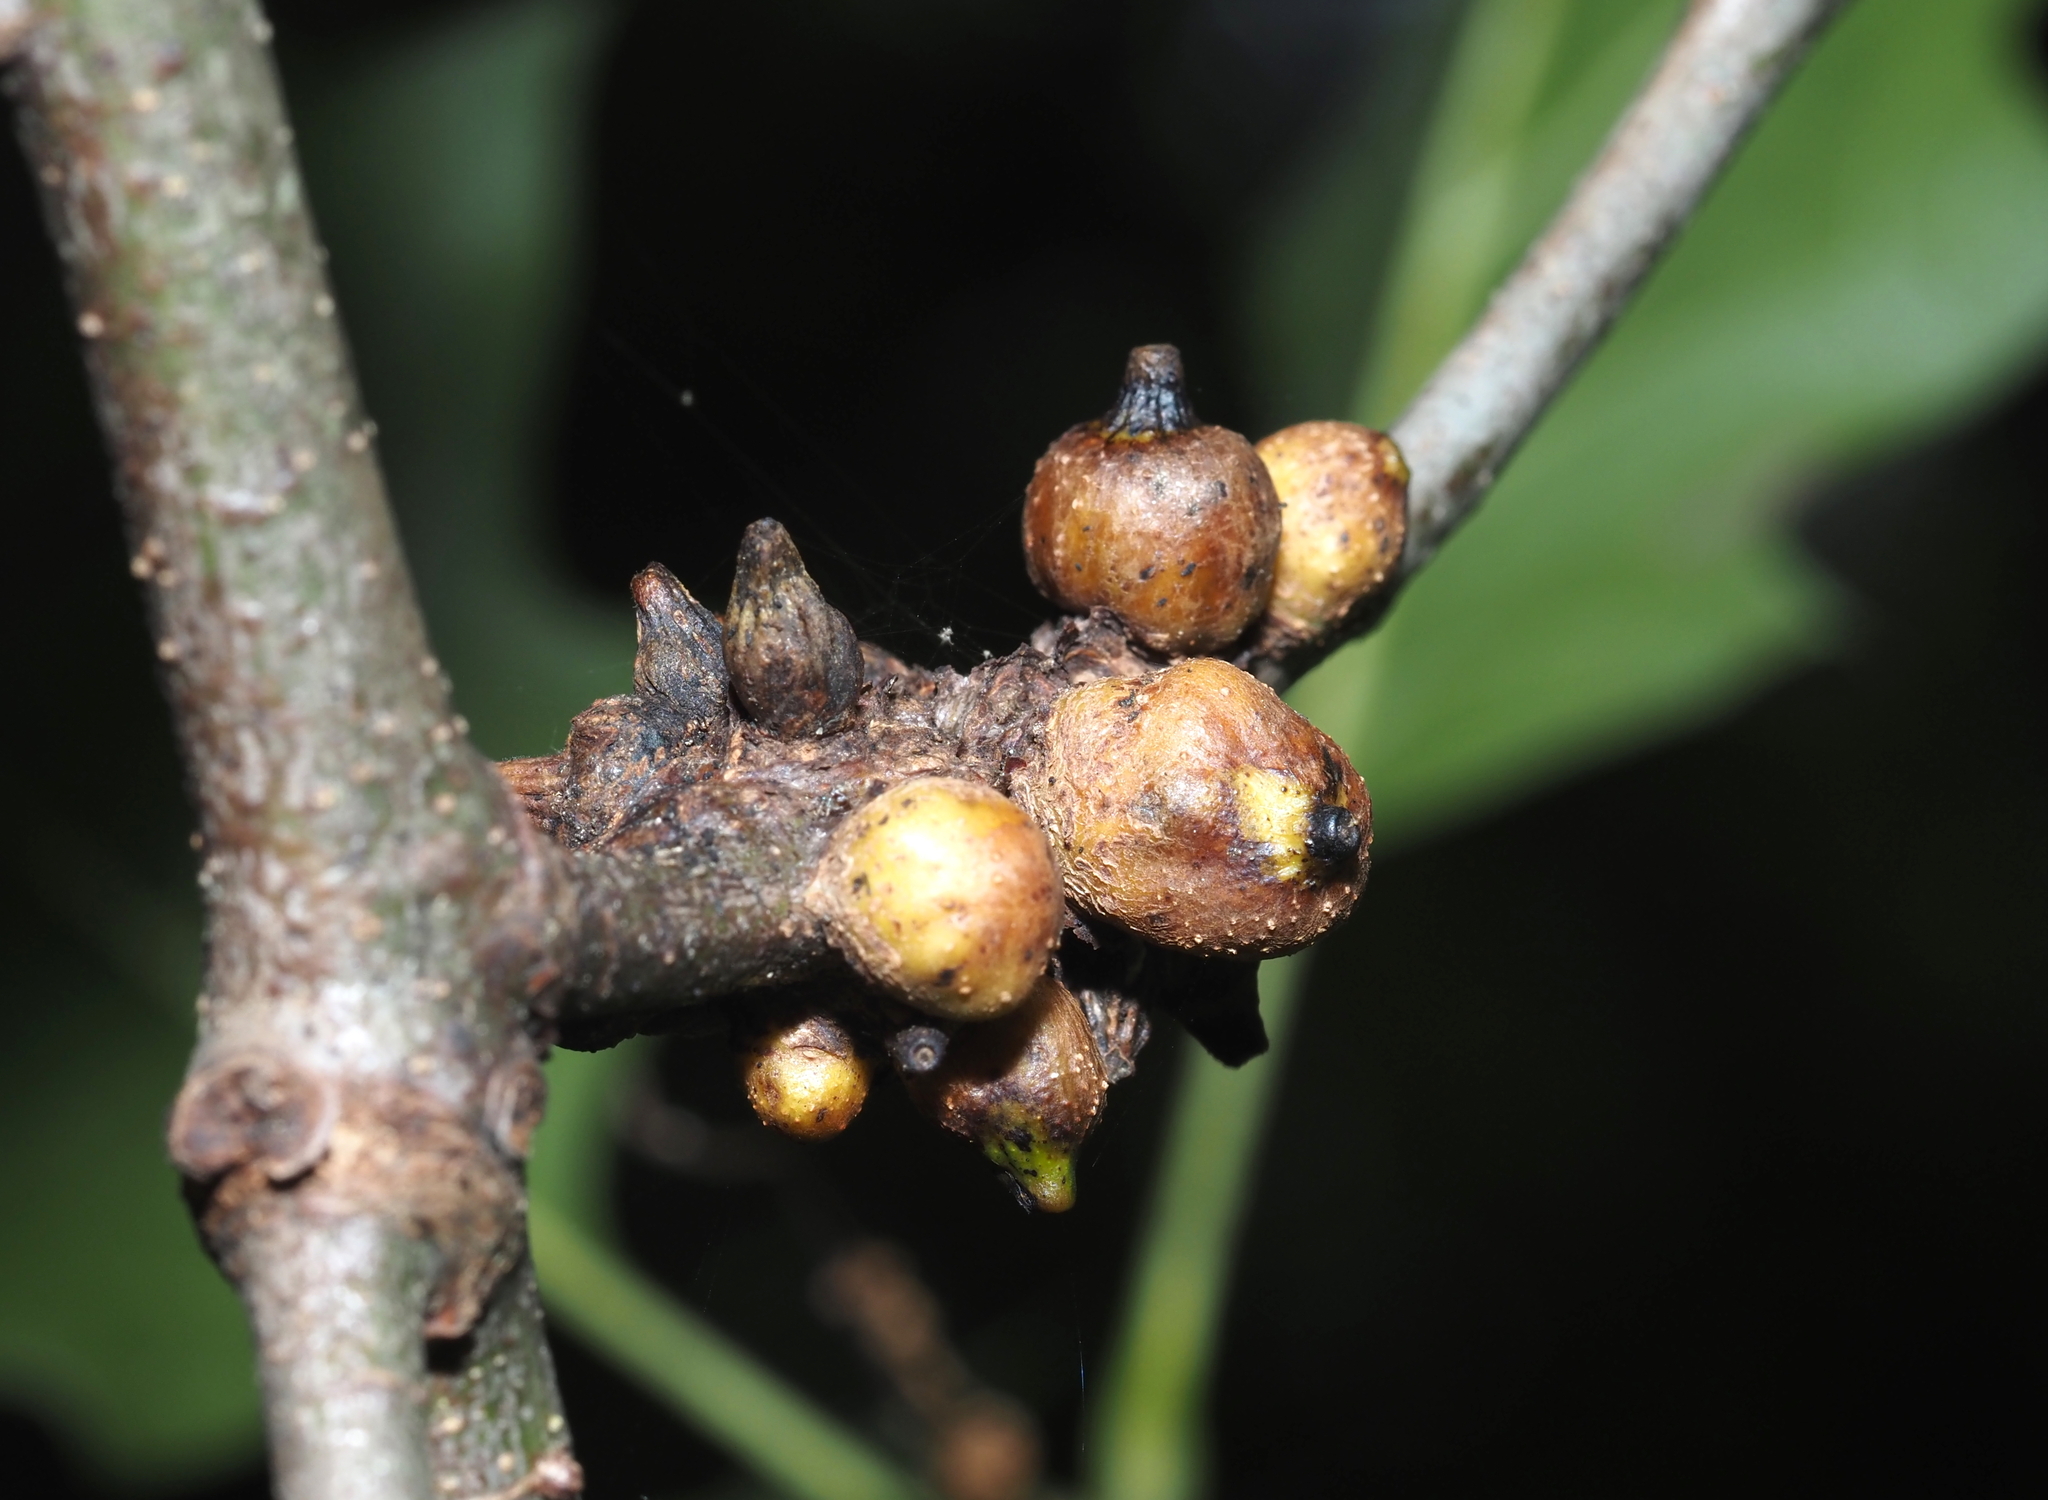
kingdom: Animalia
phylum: Arthropoda
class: Insecta
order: Hymenoptera
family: Cynipidae
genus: Callirhytis
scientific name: Callirhytis
